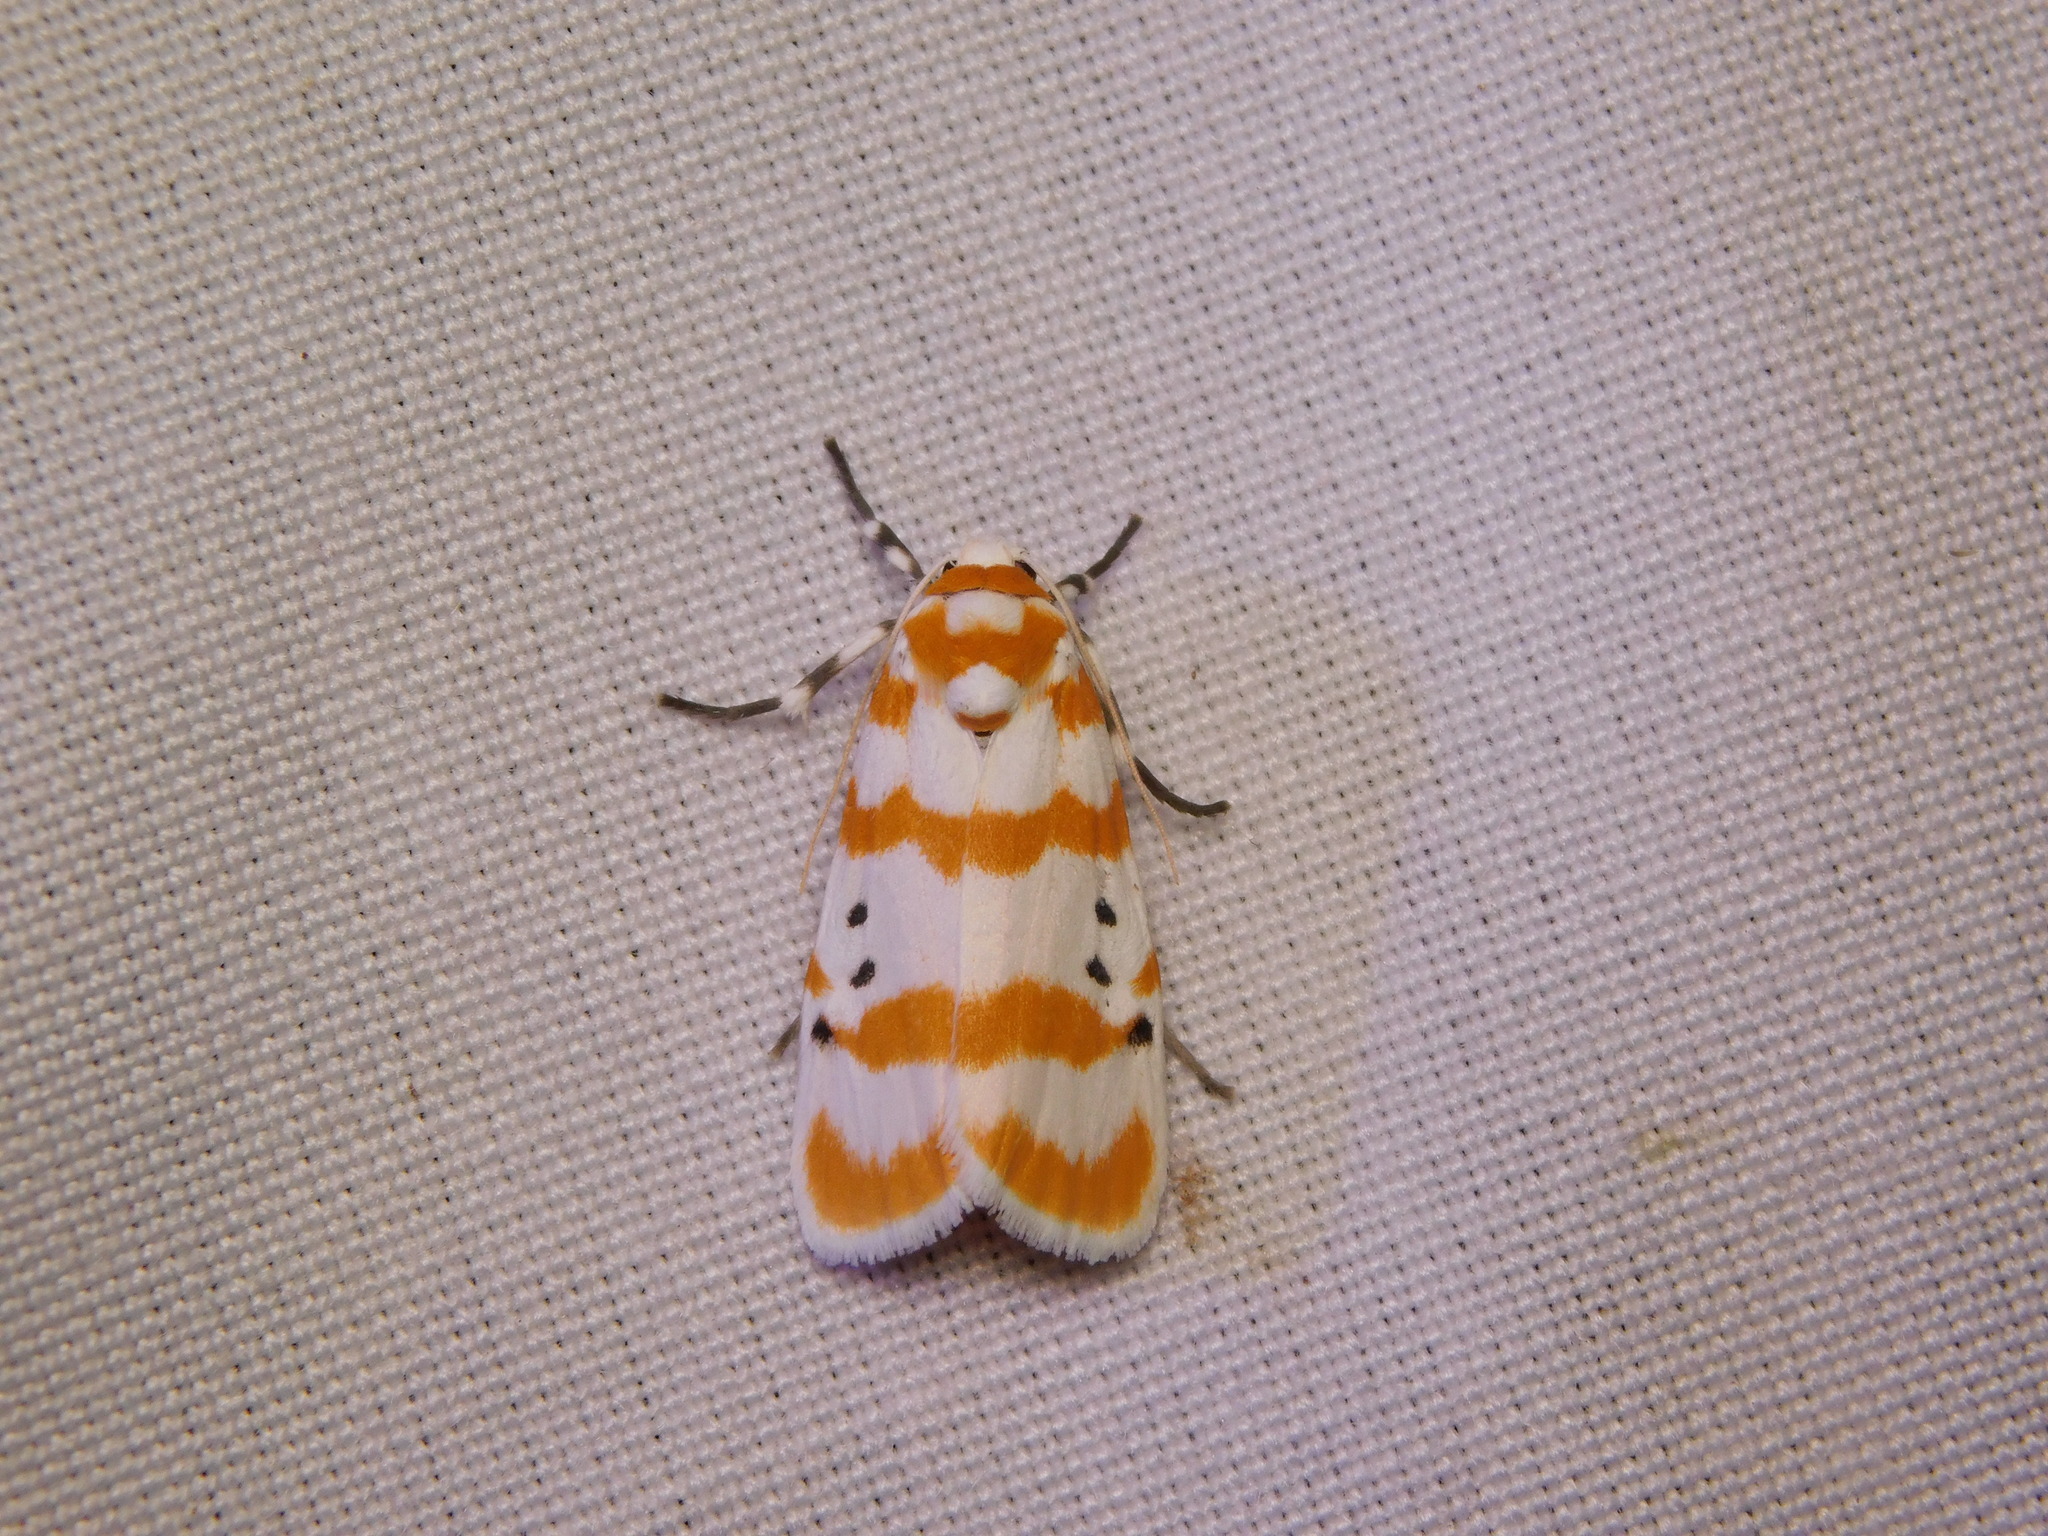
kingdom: Animalia
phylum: Arthropoda
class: Insecta
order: Lepidoptera
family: Erebidae
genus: Cyana
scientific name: Cyana guttifera
